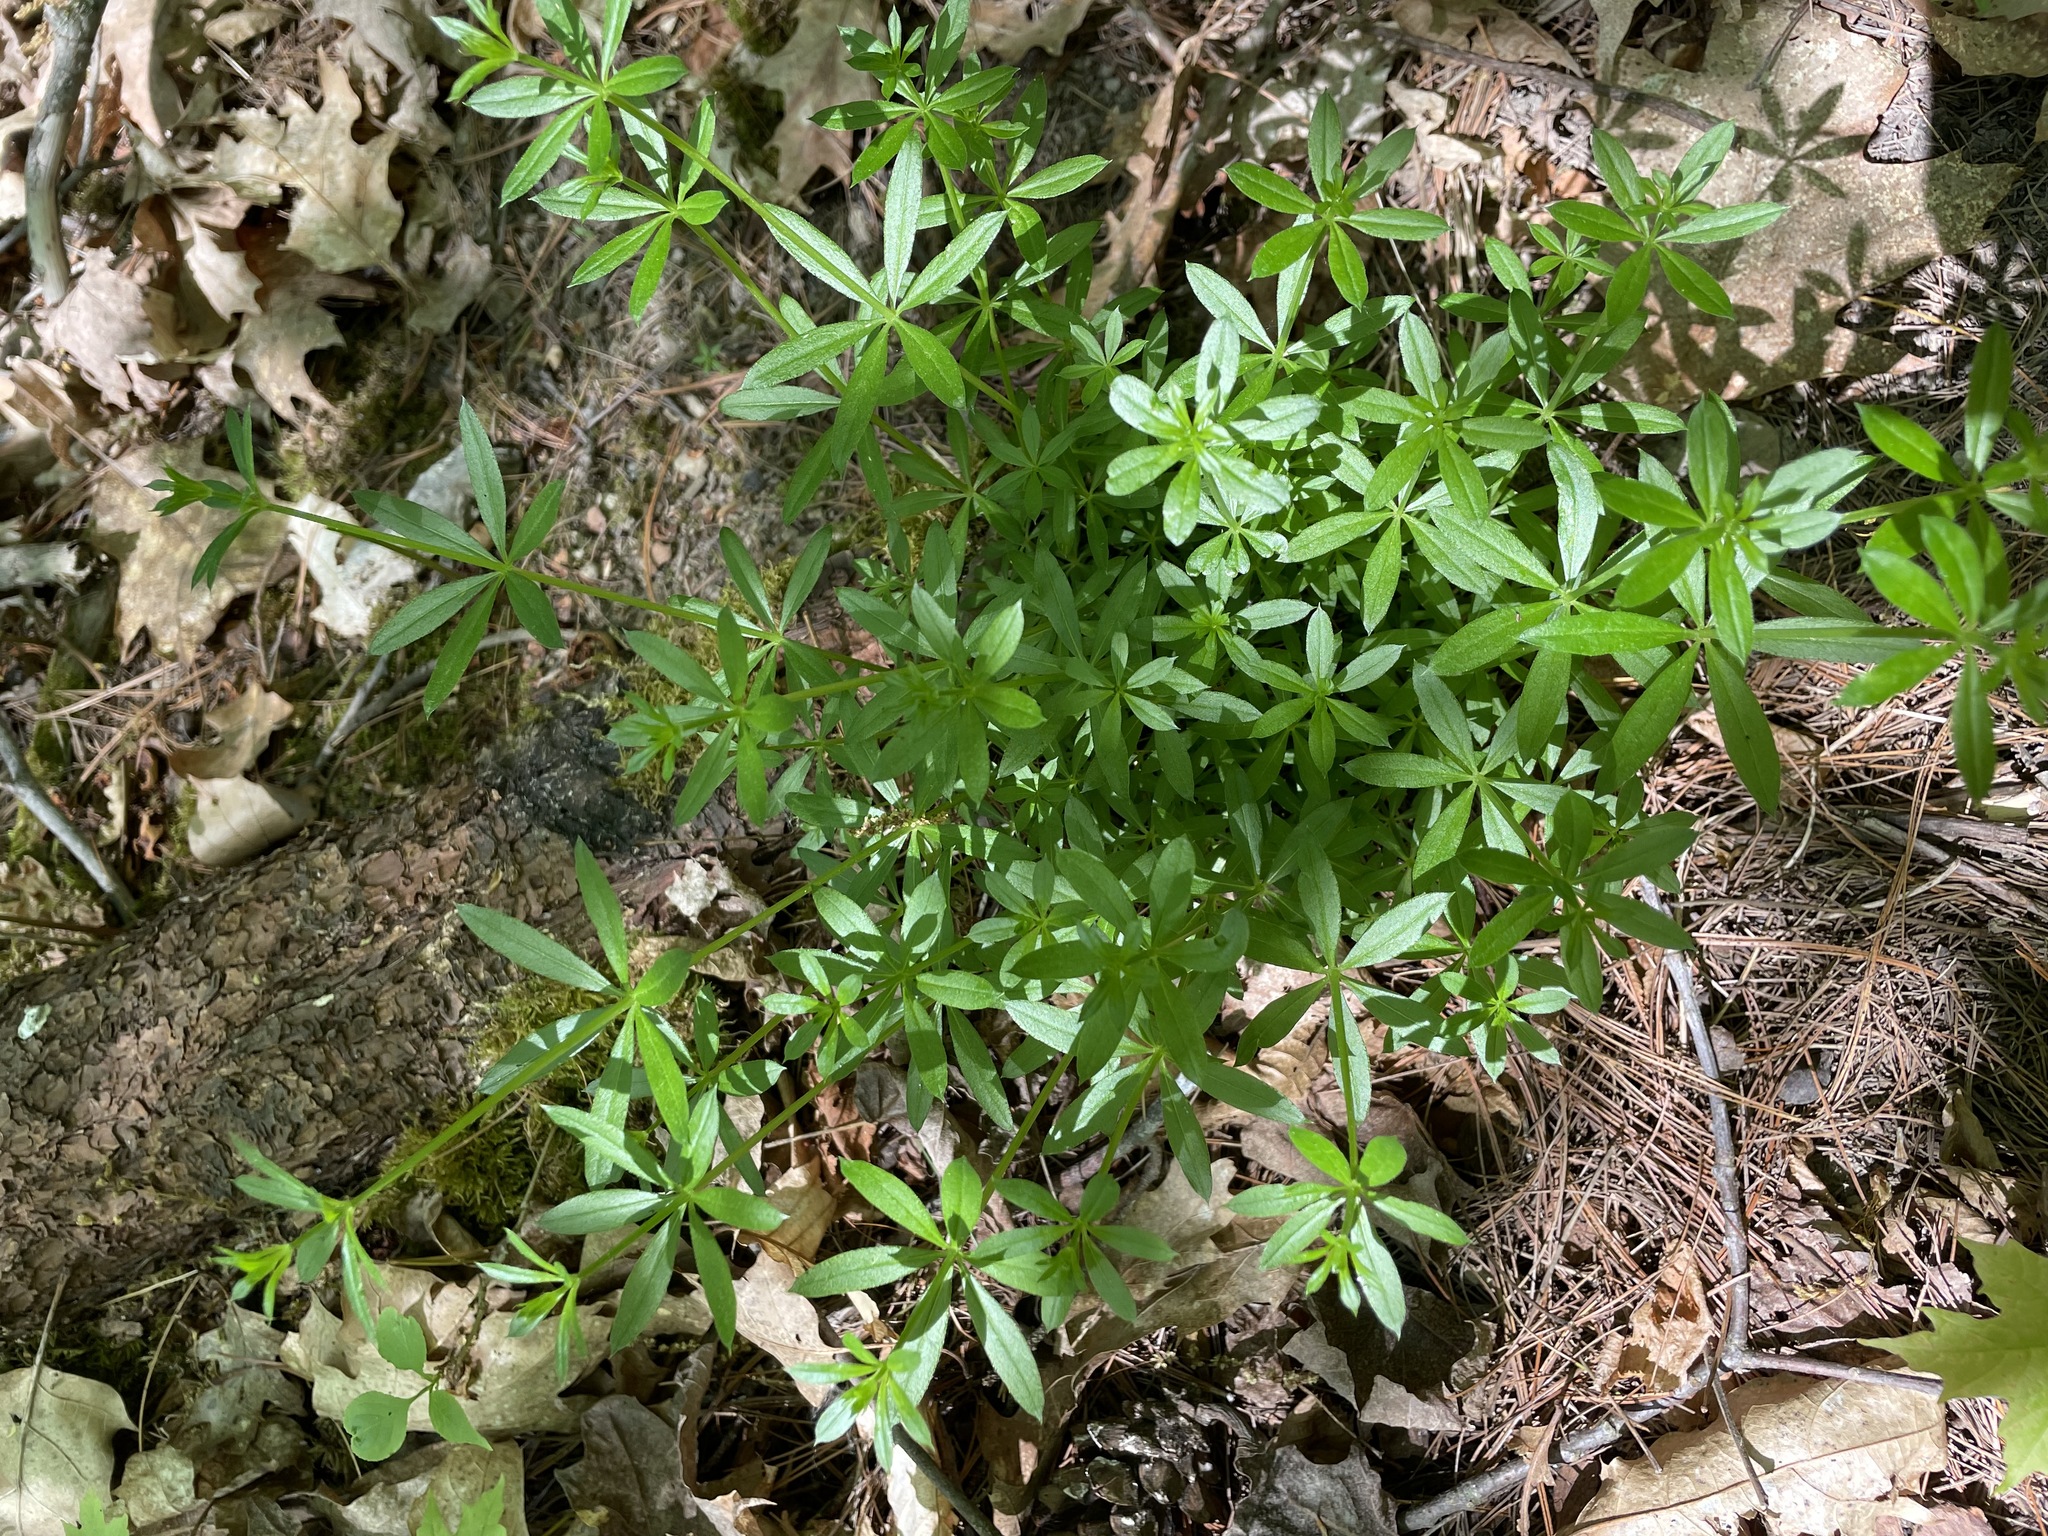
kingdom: Plantae
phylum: Tracheophyta
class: Magnoliopsida
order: Gentianales
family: Rubiaceae
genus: Galium
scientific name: Galium triflorum
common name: Fragrant bedstraw
